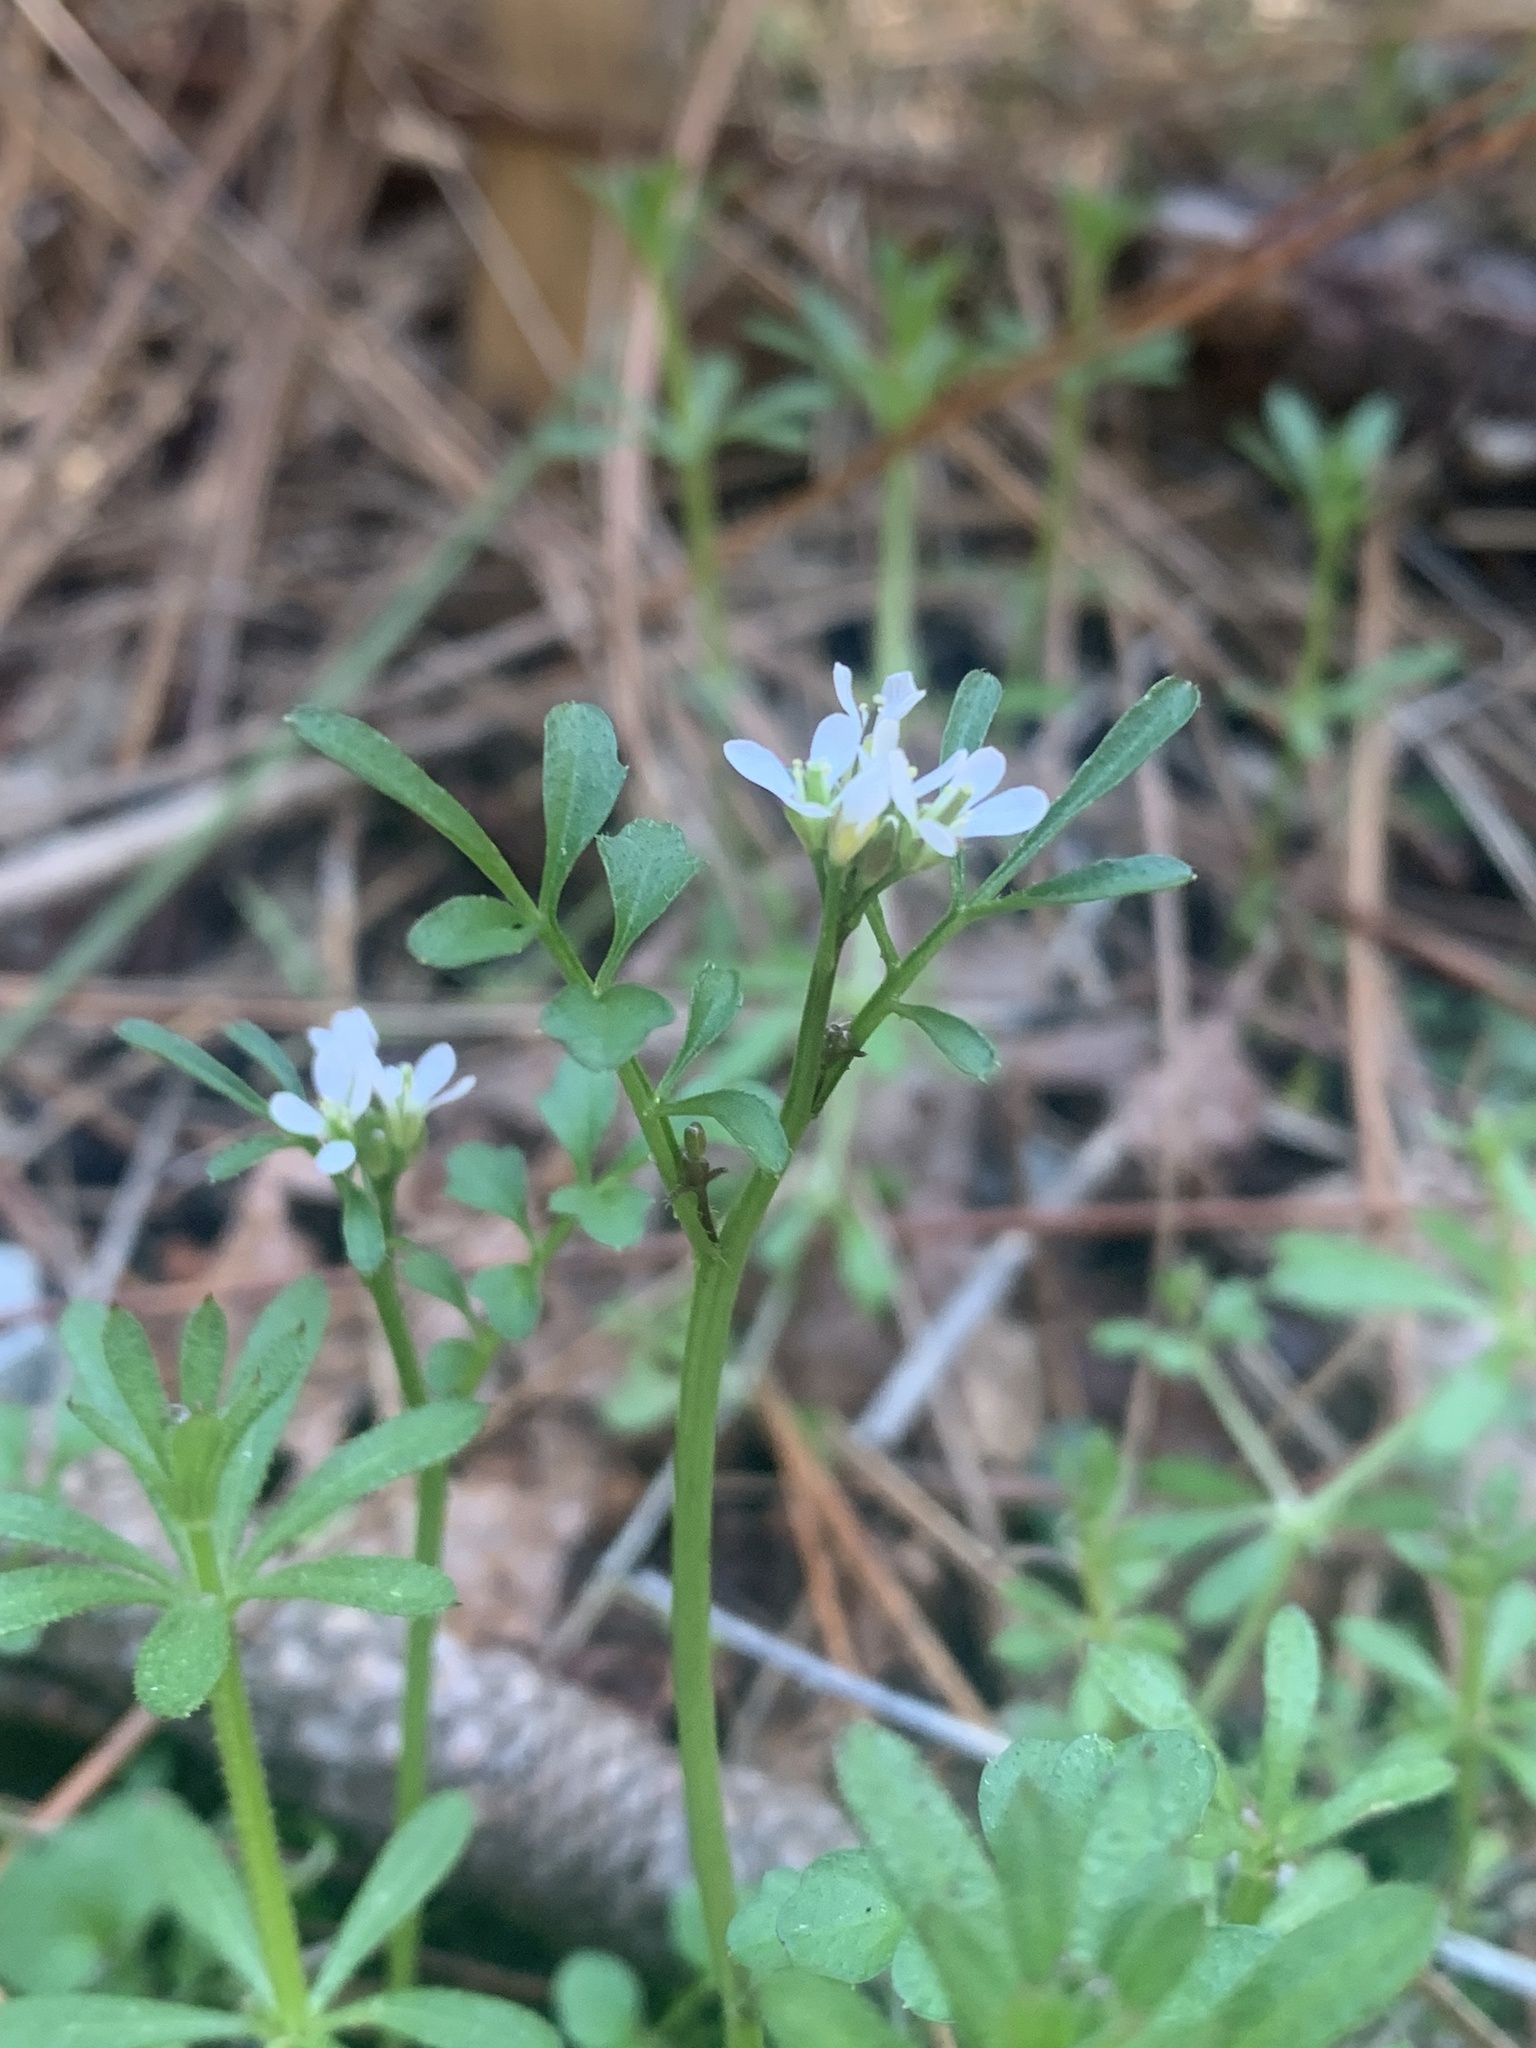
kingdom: Plantae
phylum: Tracheophyta
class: Magnoliopsida
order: Brassicales
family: Brassicaceae
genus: Cardamine
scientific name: Cardamine hirsuta
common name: Hairy bittercress
